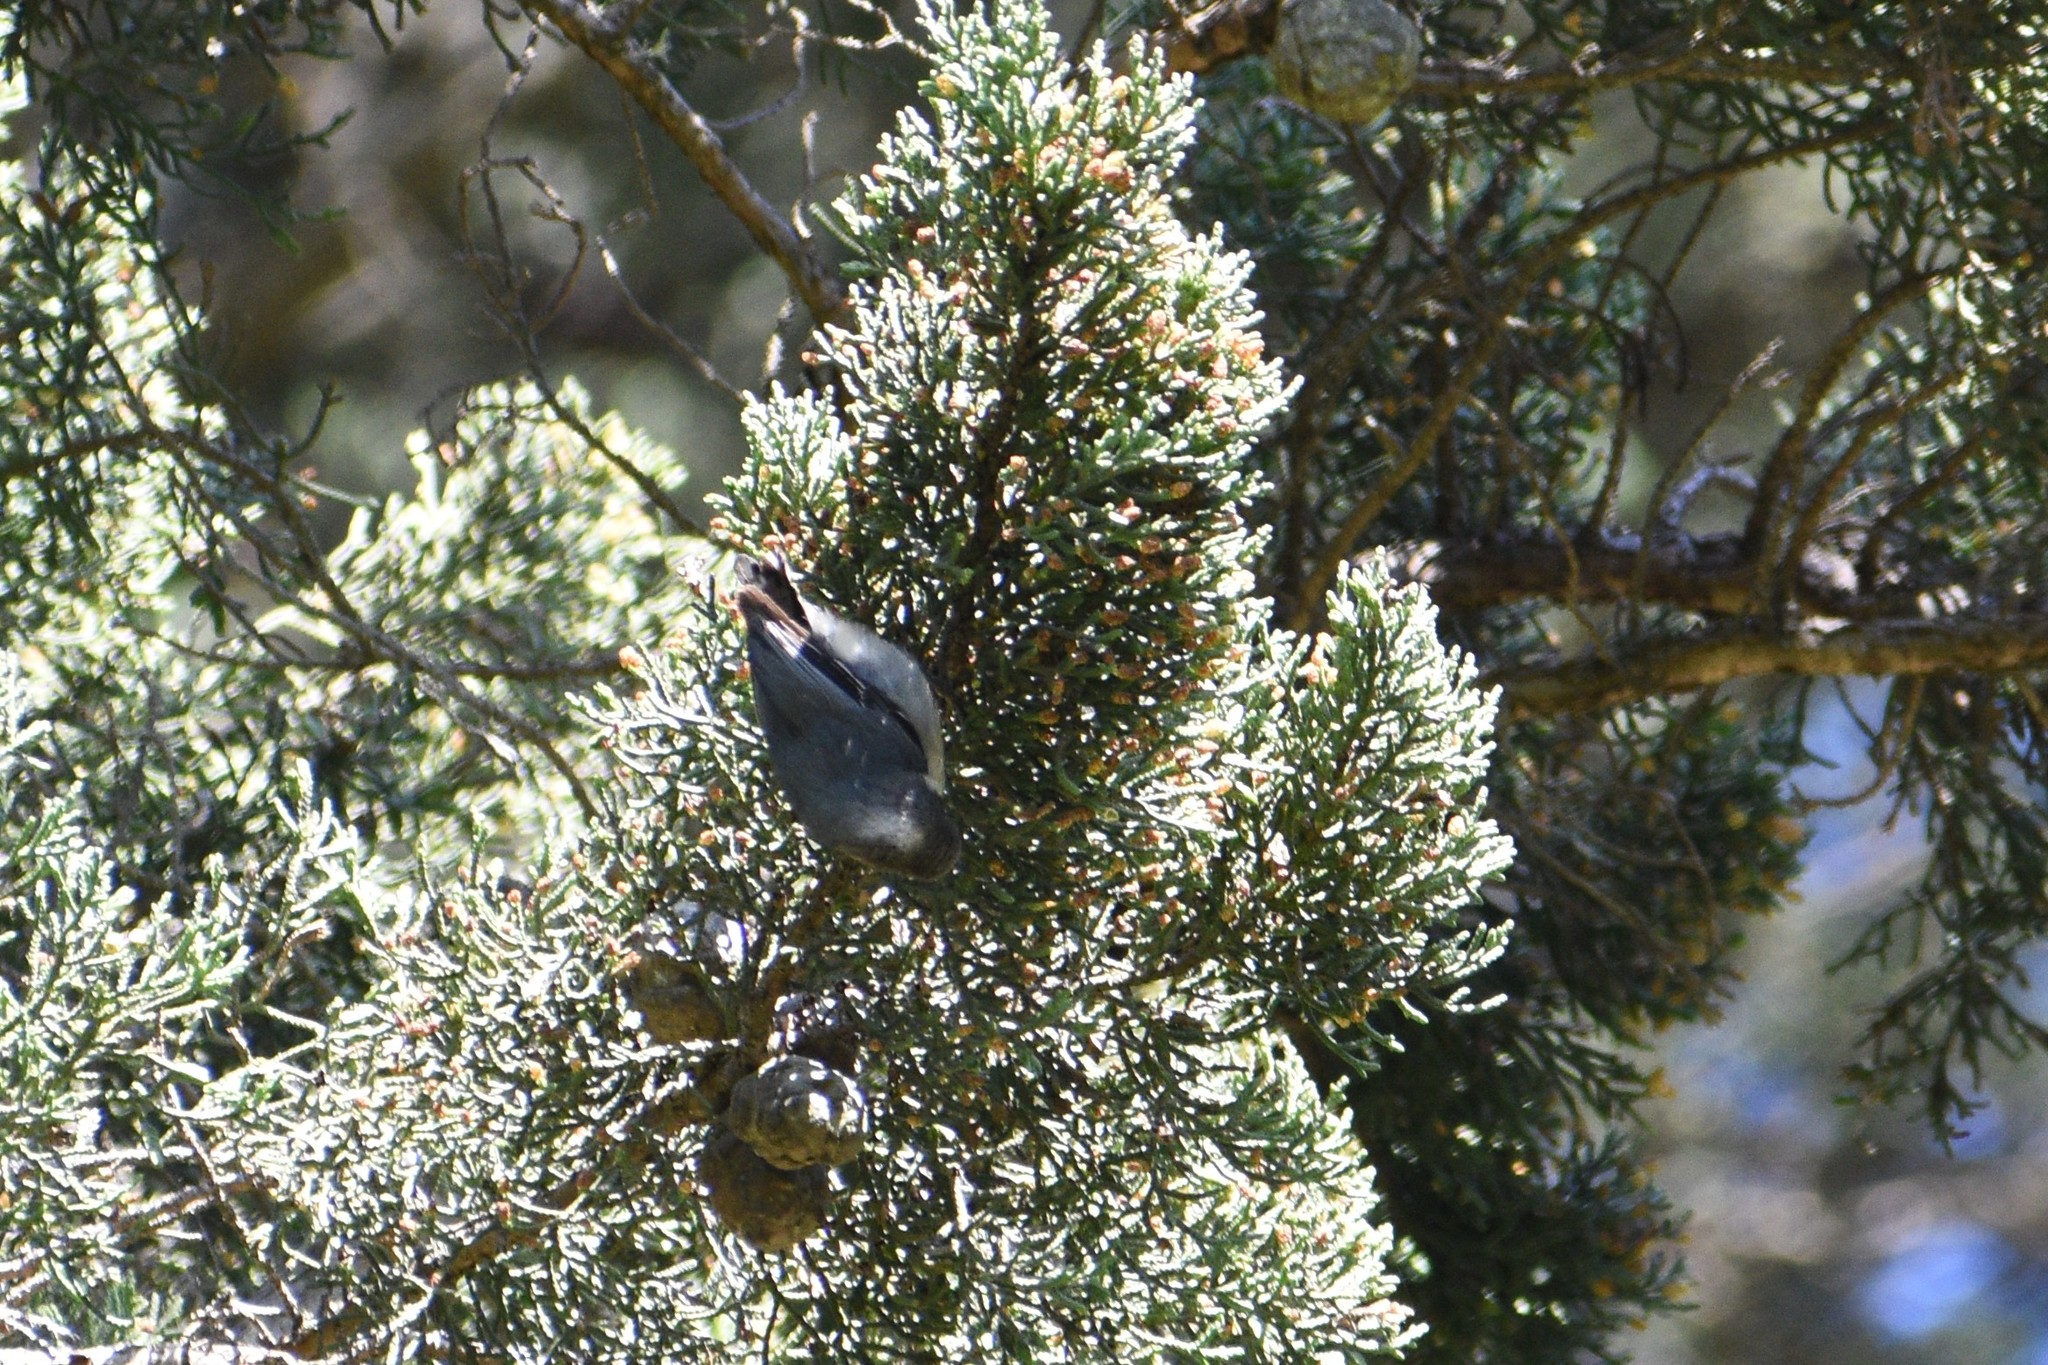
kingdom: Animalia
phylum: Chordata
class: Aves
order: Passeriformes
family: Sittidae
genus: Sitta
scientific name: Sitta pygmaea
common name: Pygmy nuthatch
